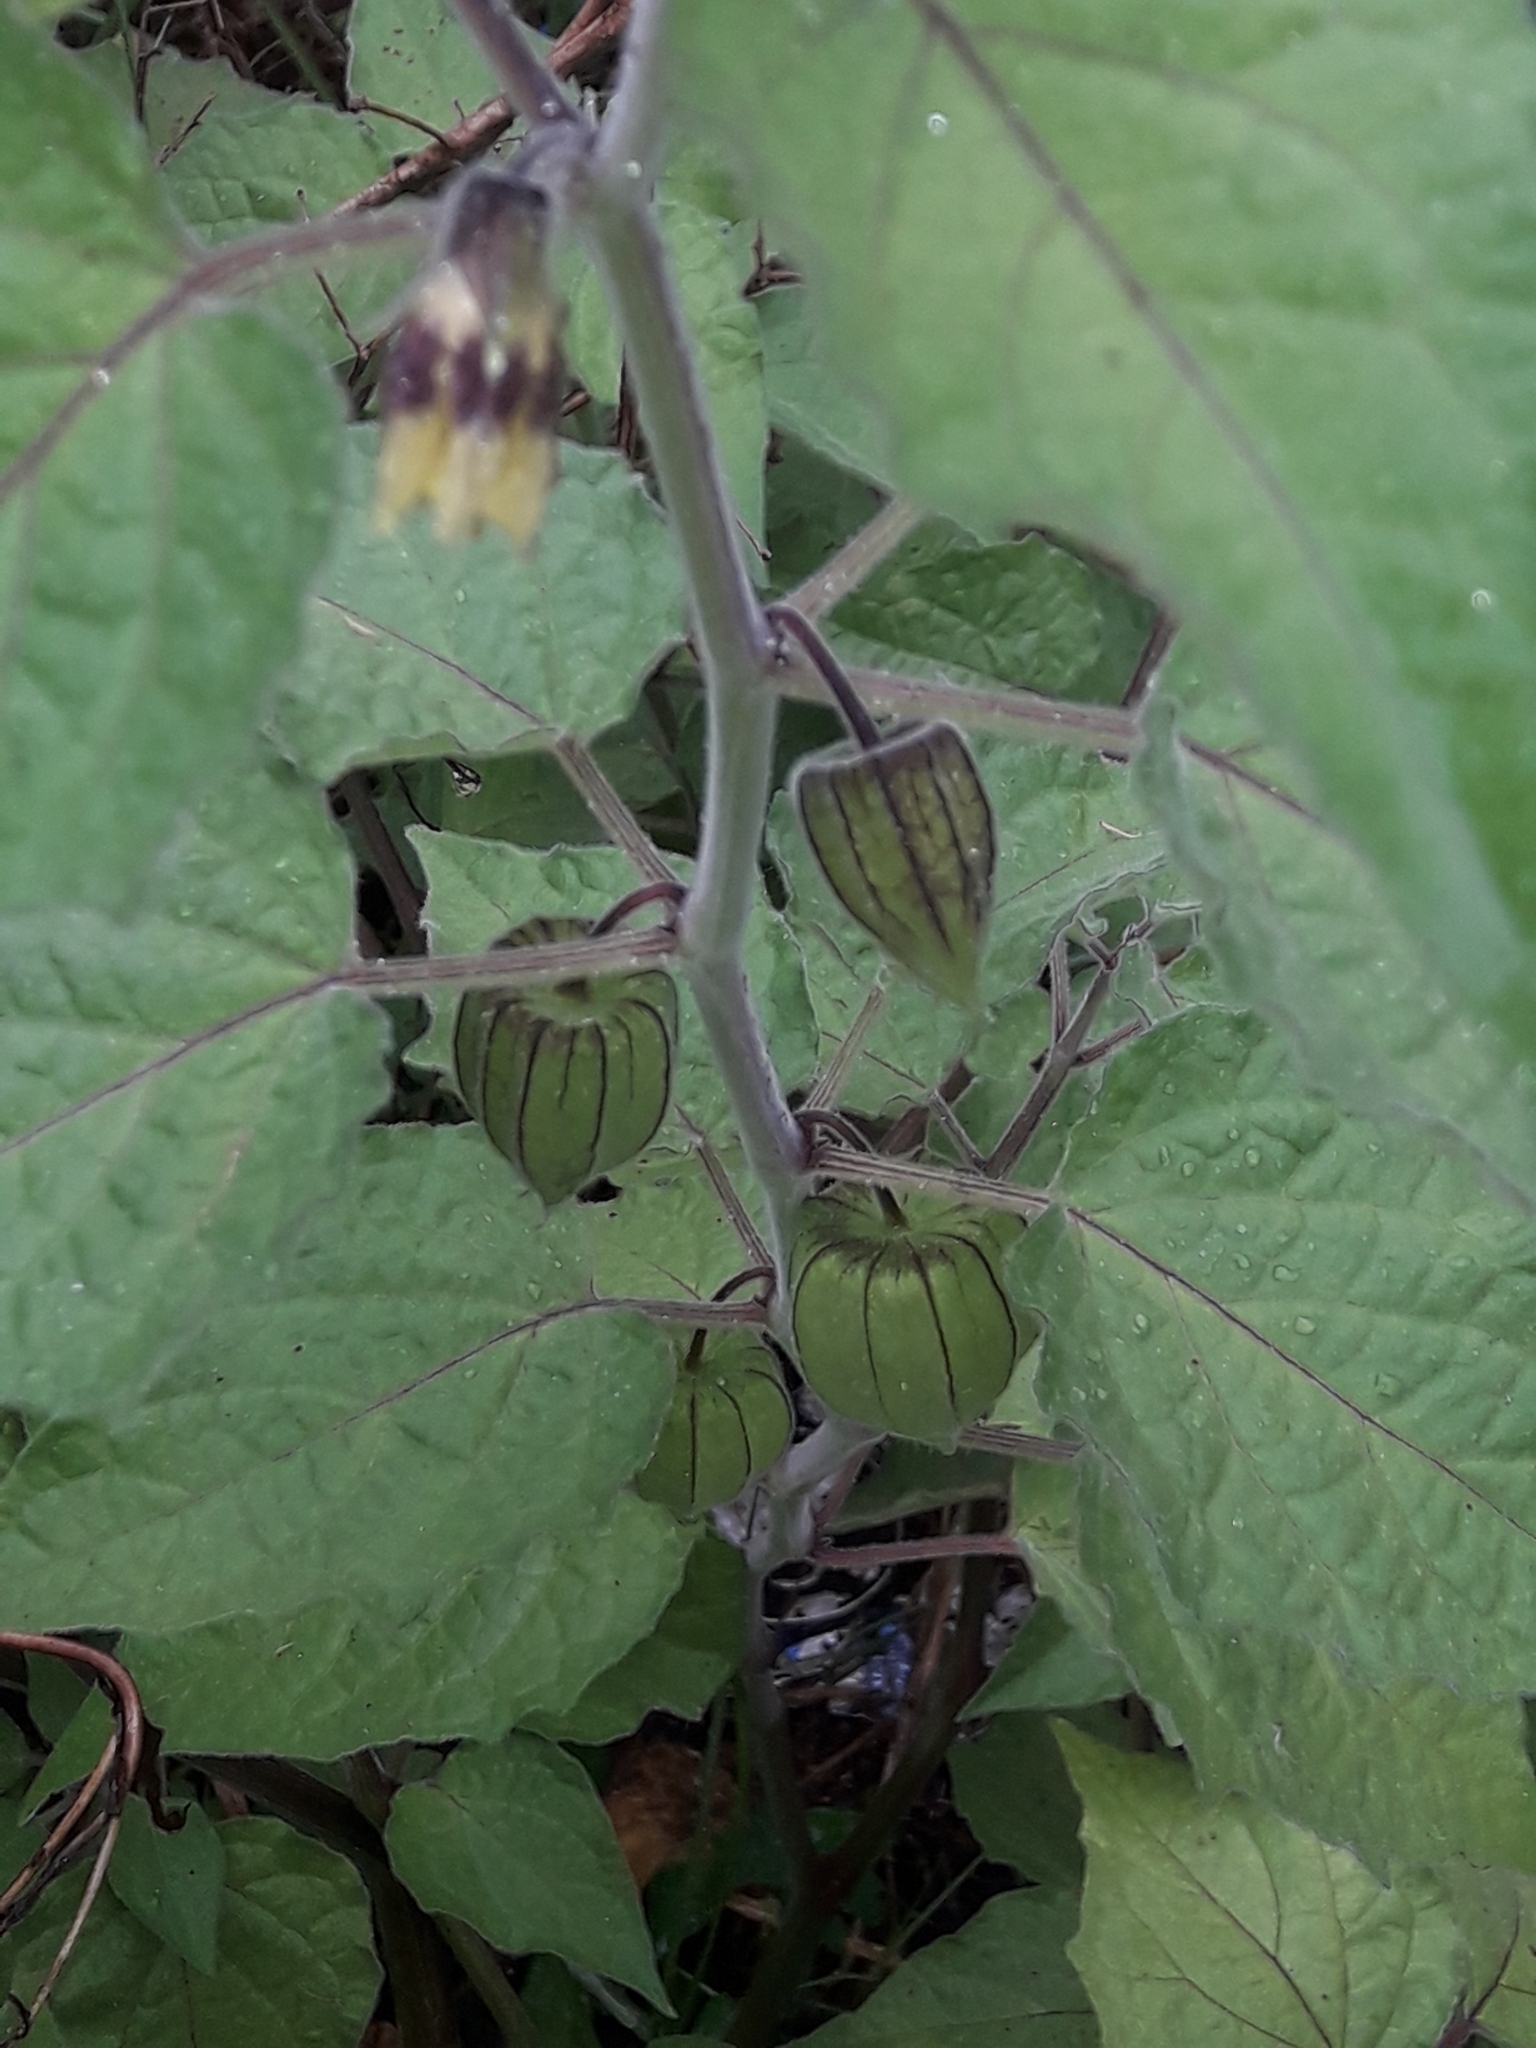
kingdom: Plantae
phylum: Tracheophyta
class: Magnoliopsida
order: Solanales
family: Solanaceae
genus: Physalis
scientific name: Physalis peruviana
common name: Cape-gooseberry
